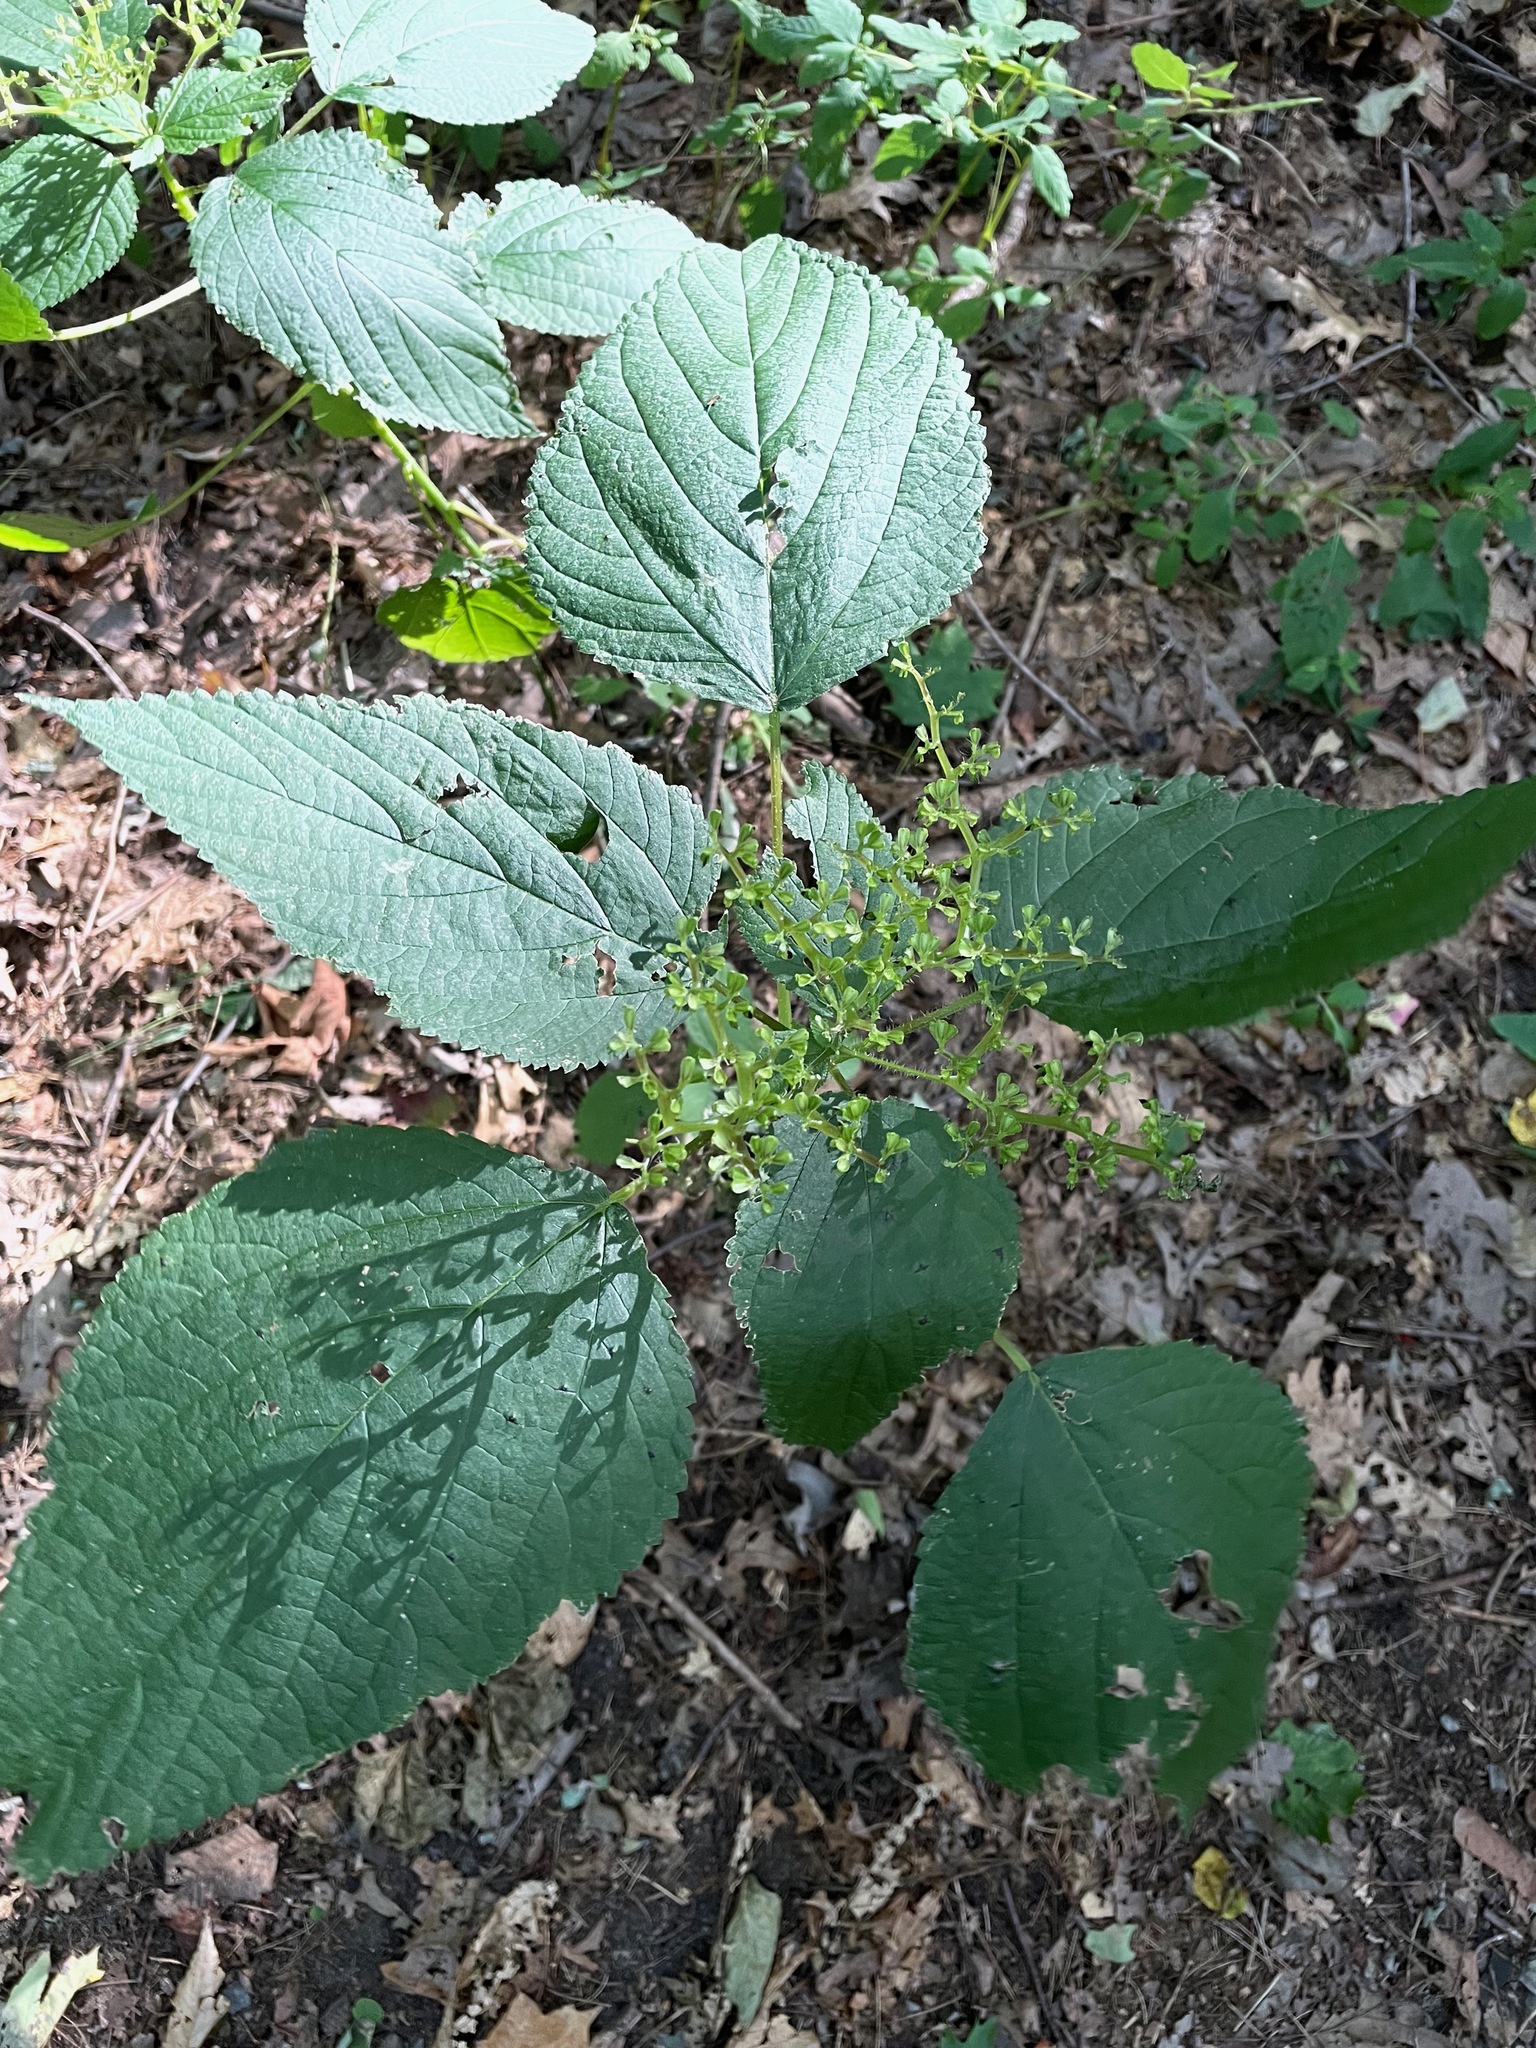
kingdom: Plantae
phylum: Tracheophyta
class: Magnoliopsida
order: Rosales
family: Urticaceae
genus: Laportea
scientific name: Laportea canadensis
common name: Canada nettle
